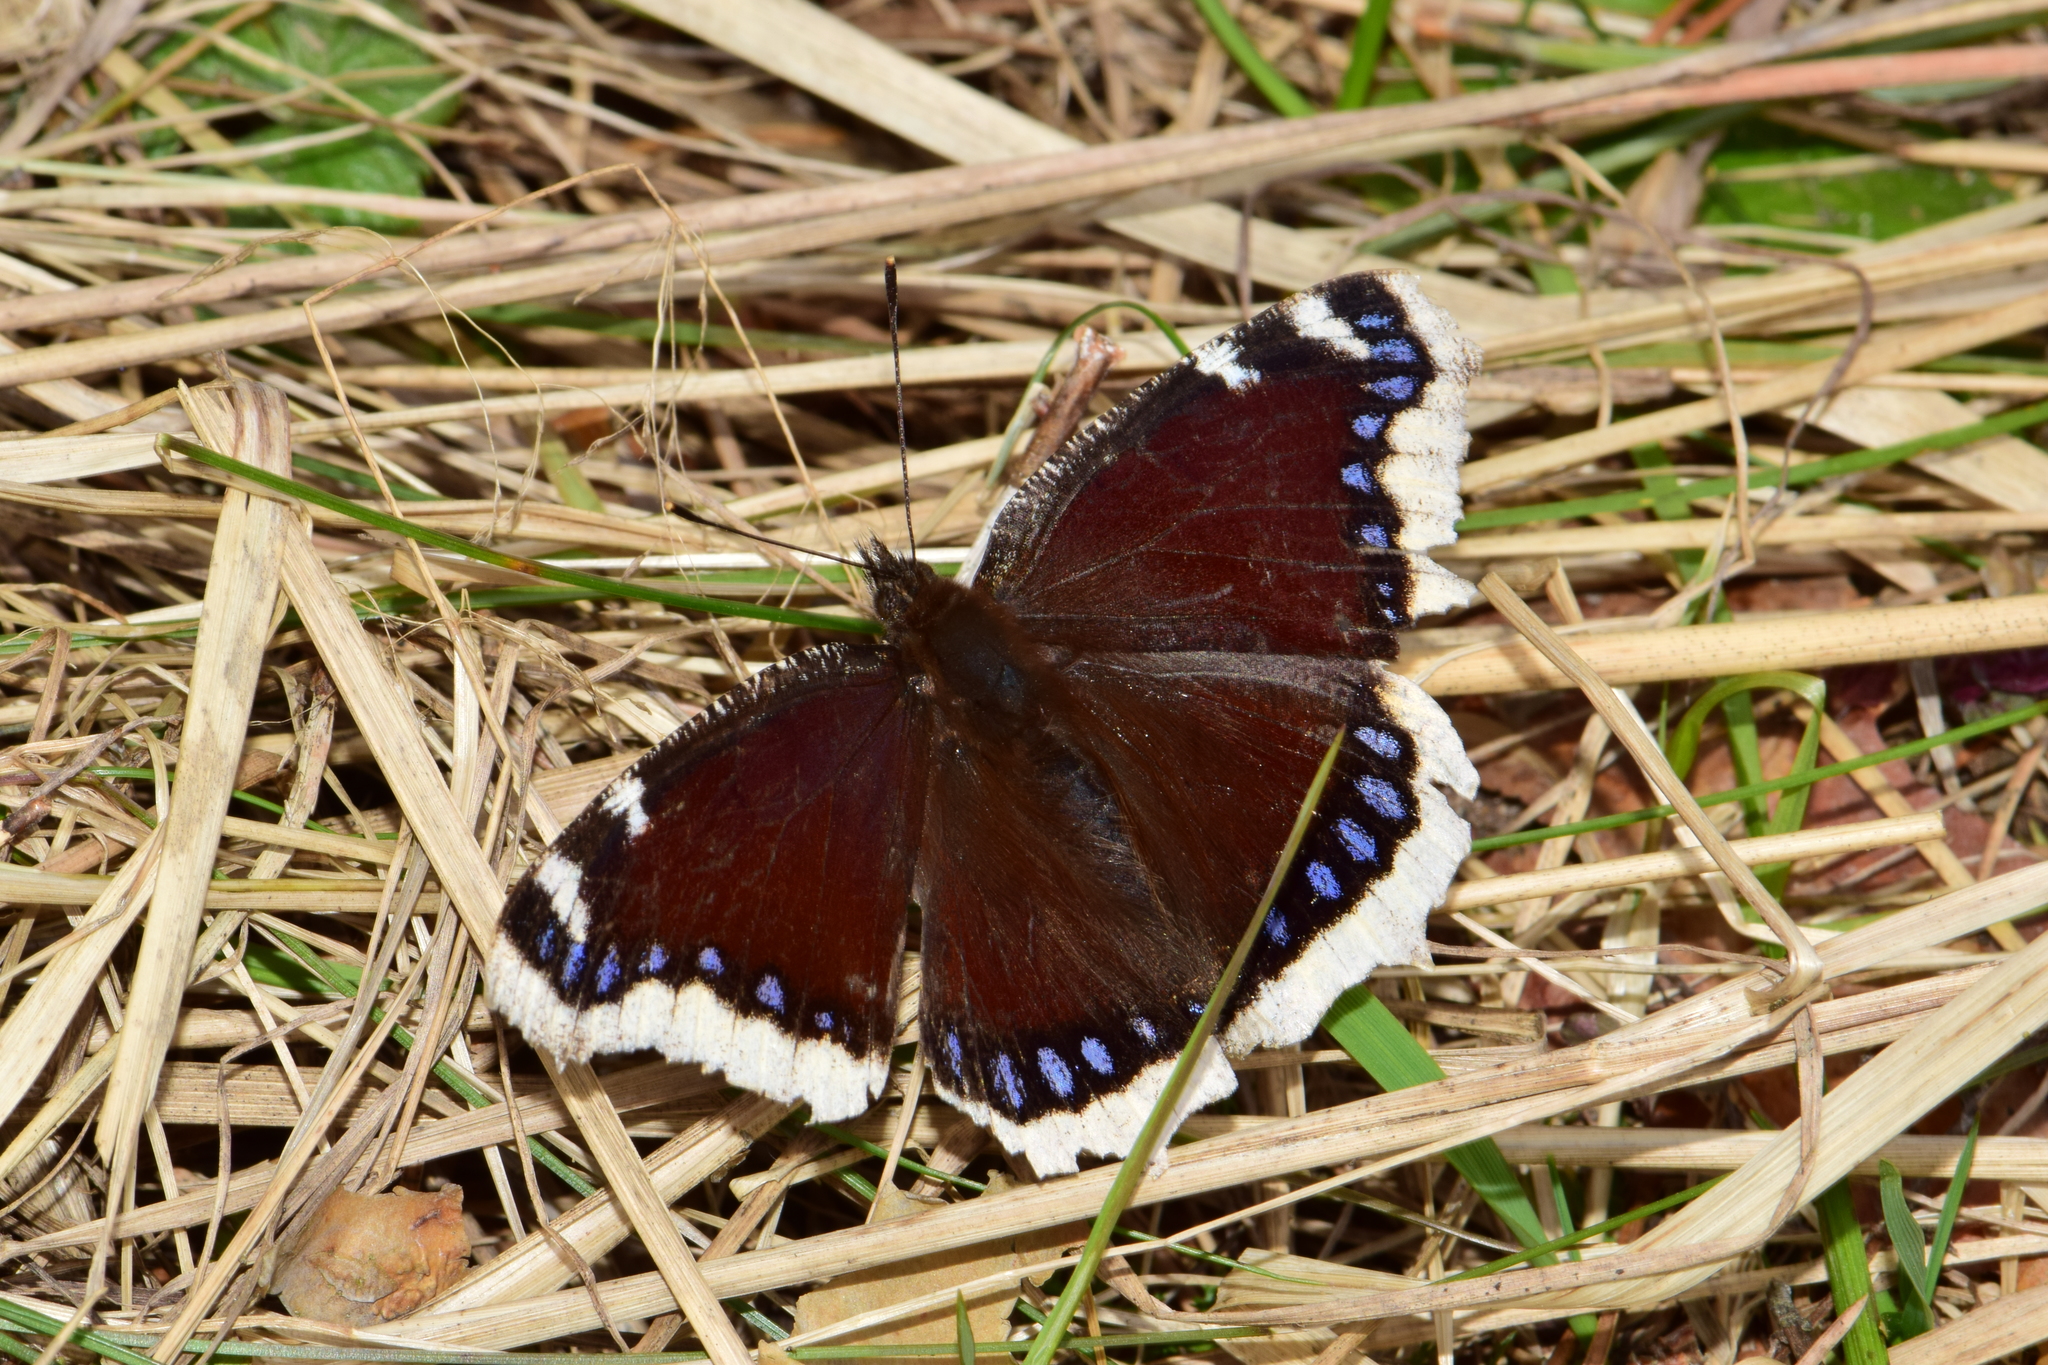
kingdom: Animalia
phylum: Arthropoda
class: Insecta
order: Lepidoptera
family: Nymphalidae
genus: Nymphalis
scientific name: Nymphalis antiopa
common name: Camberwell beauty
